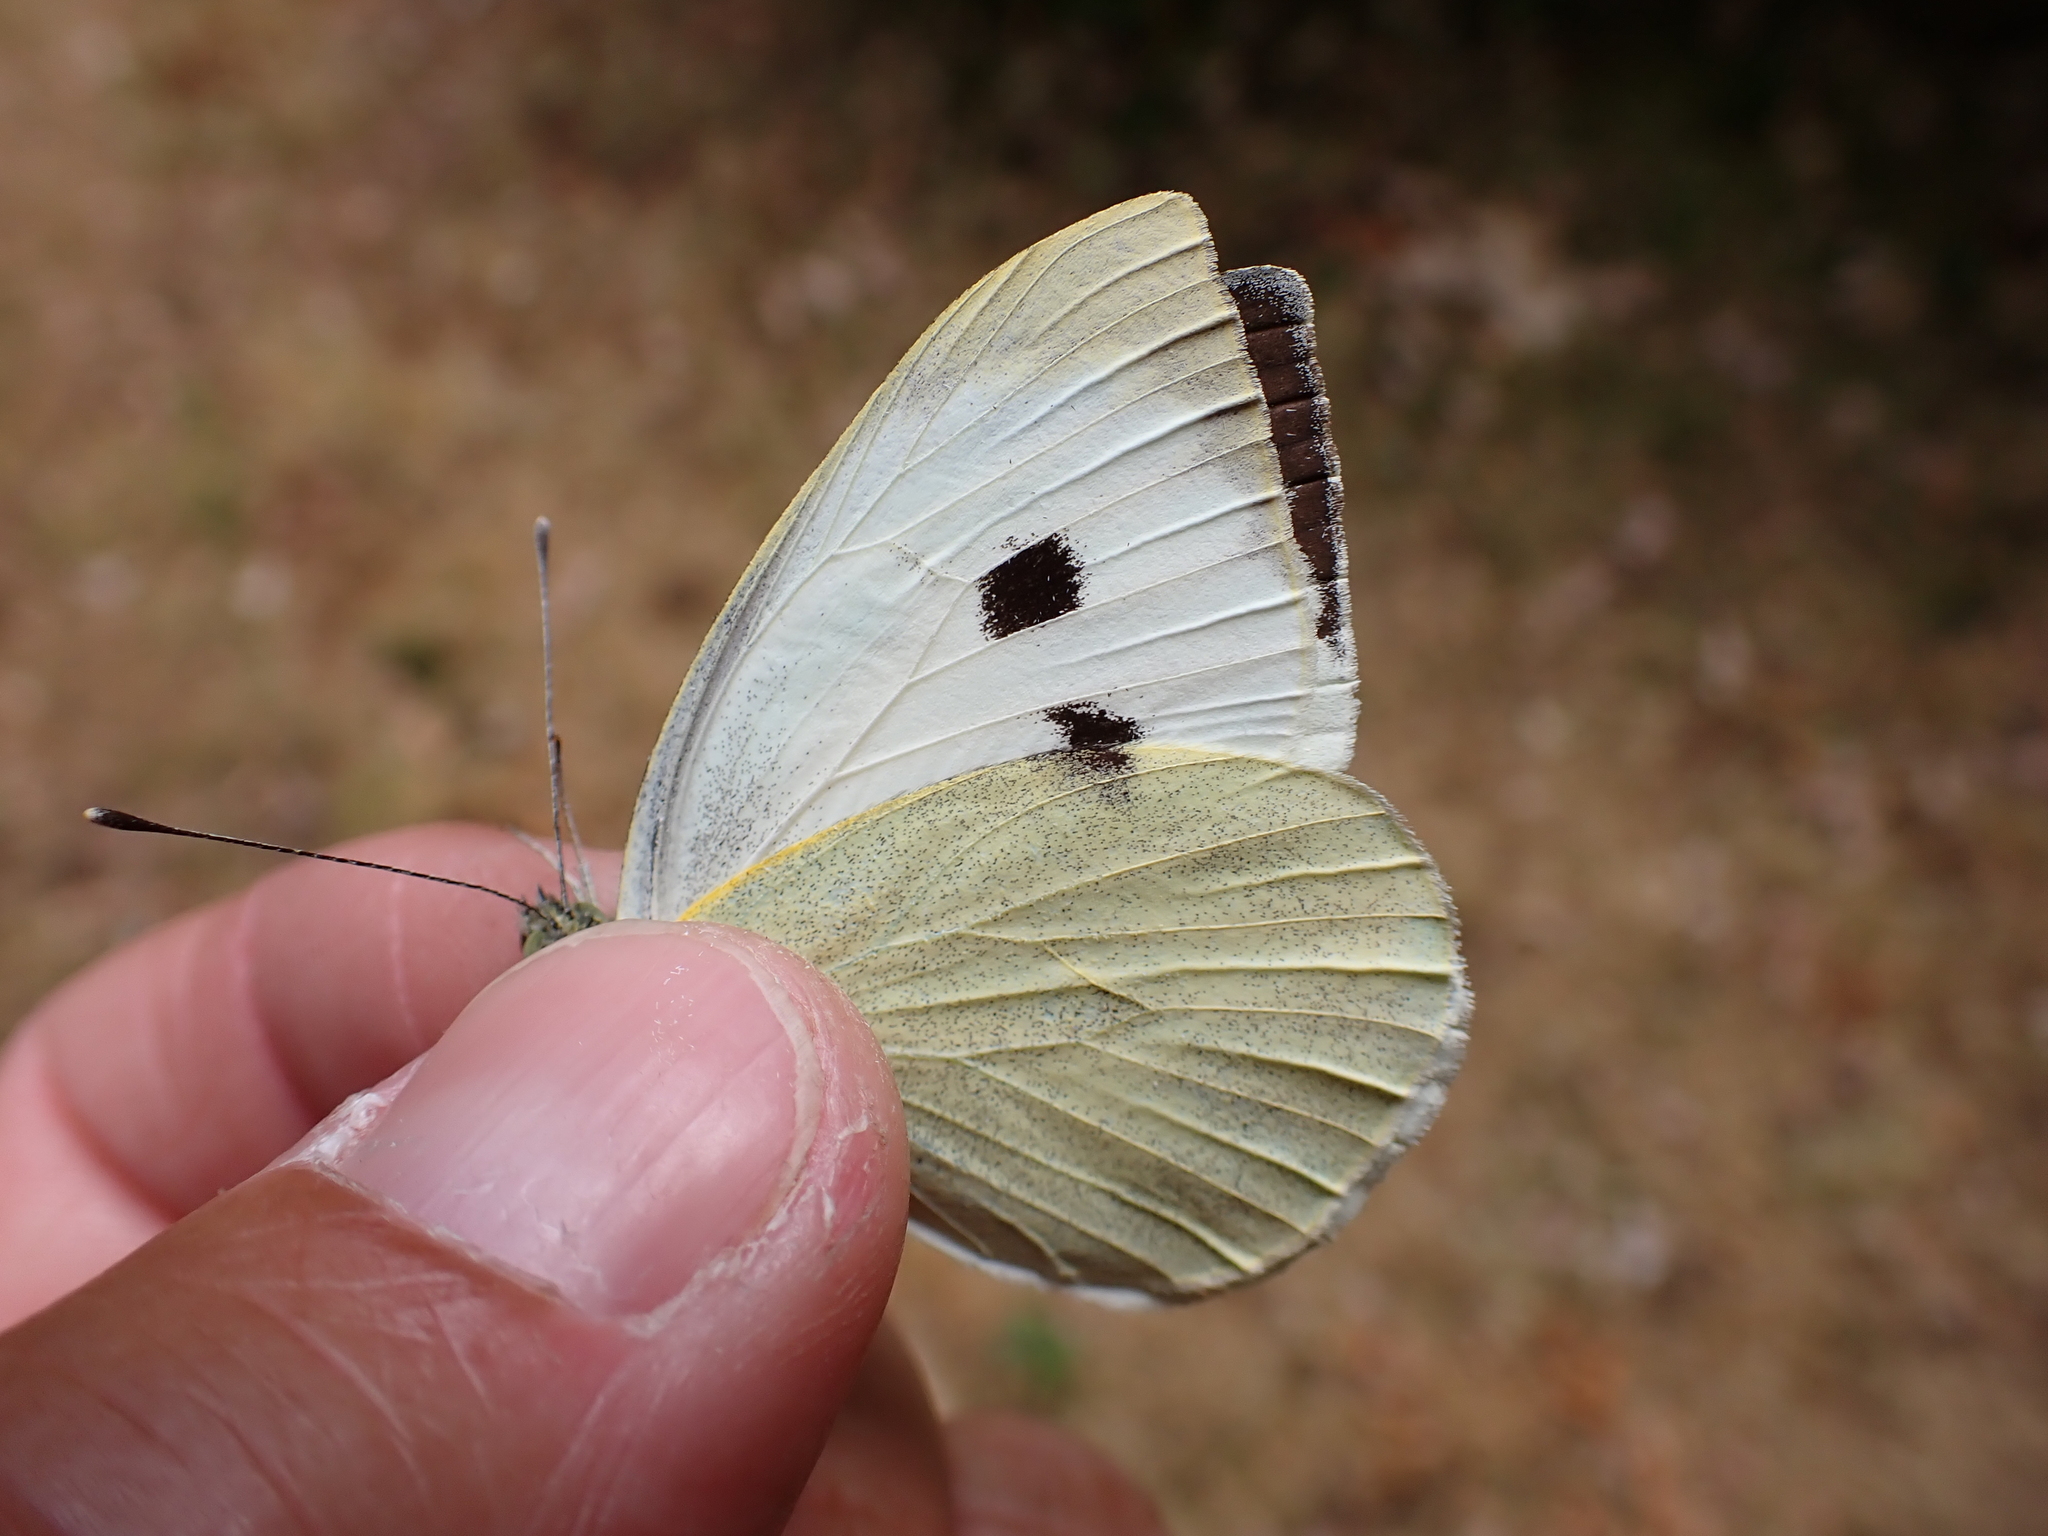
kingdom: Animalia
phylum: Arthropoda
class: Insecta
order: Lepidoptera
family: Pieridae
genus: Pieris
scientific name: Pieris brassicae
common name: Large white
